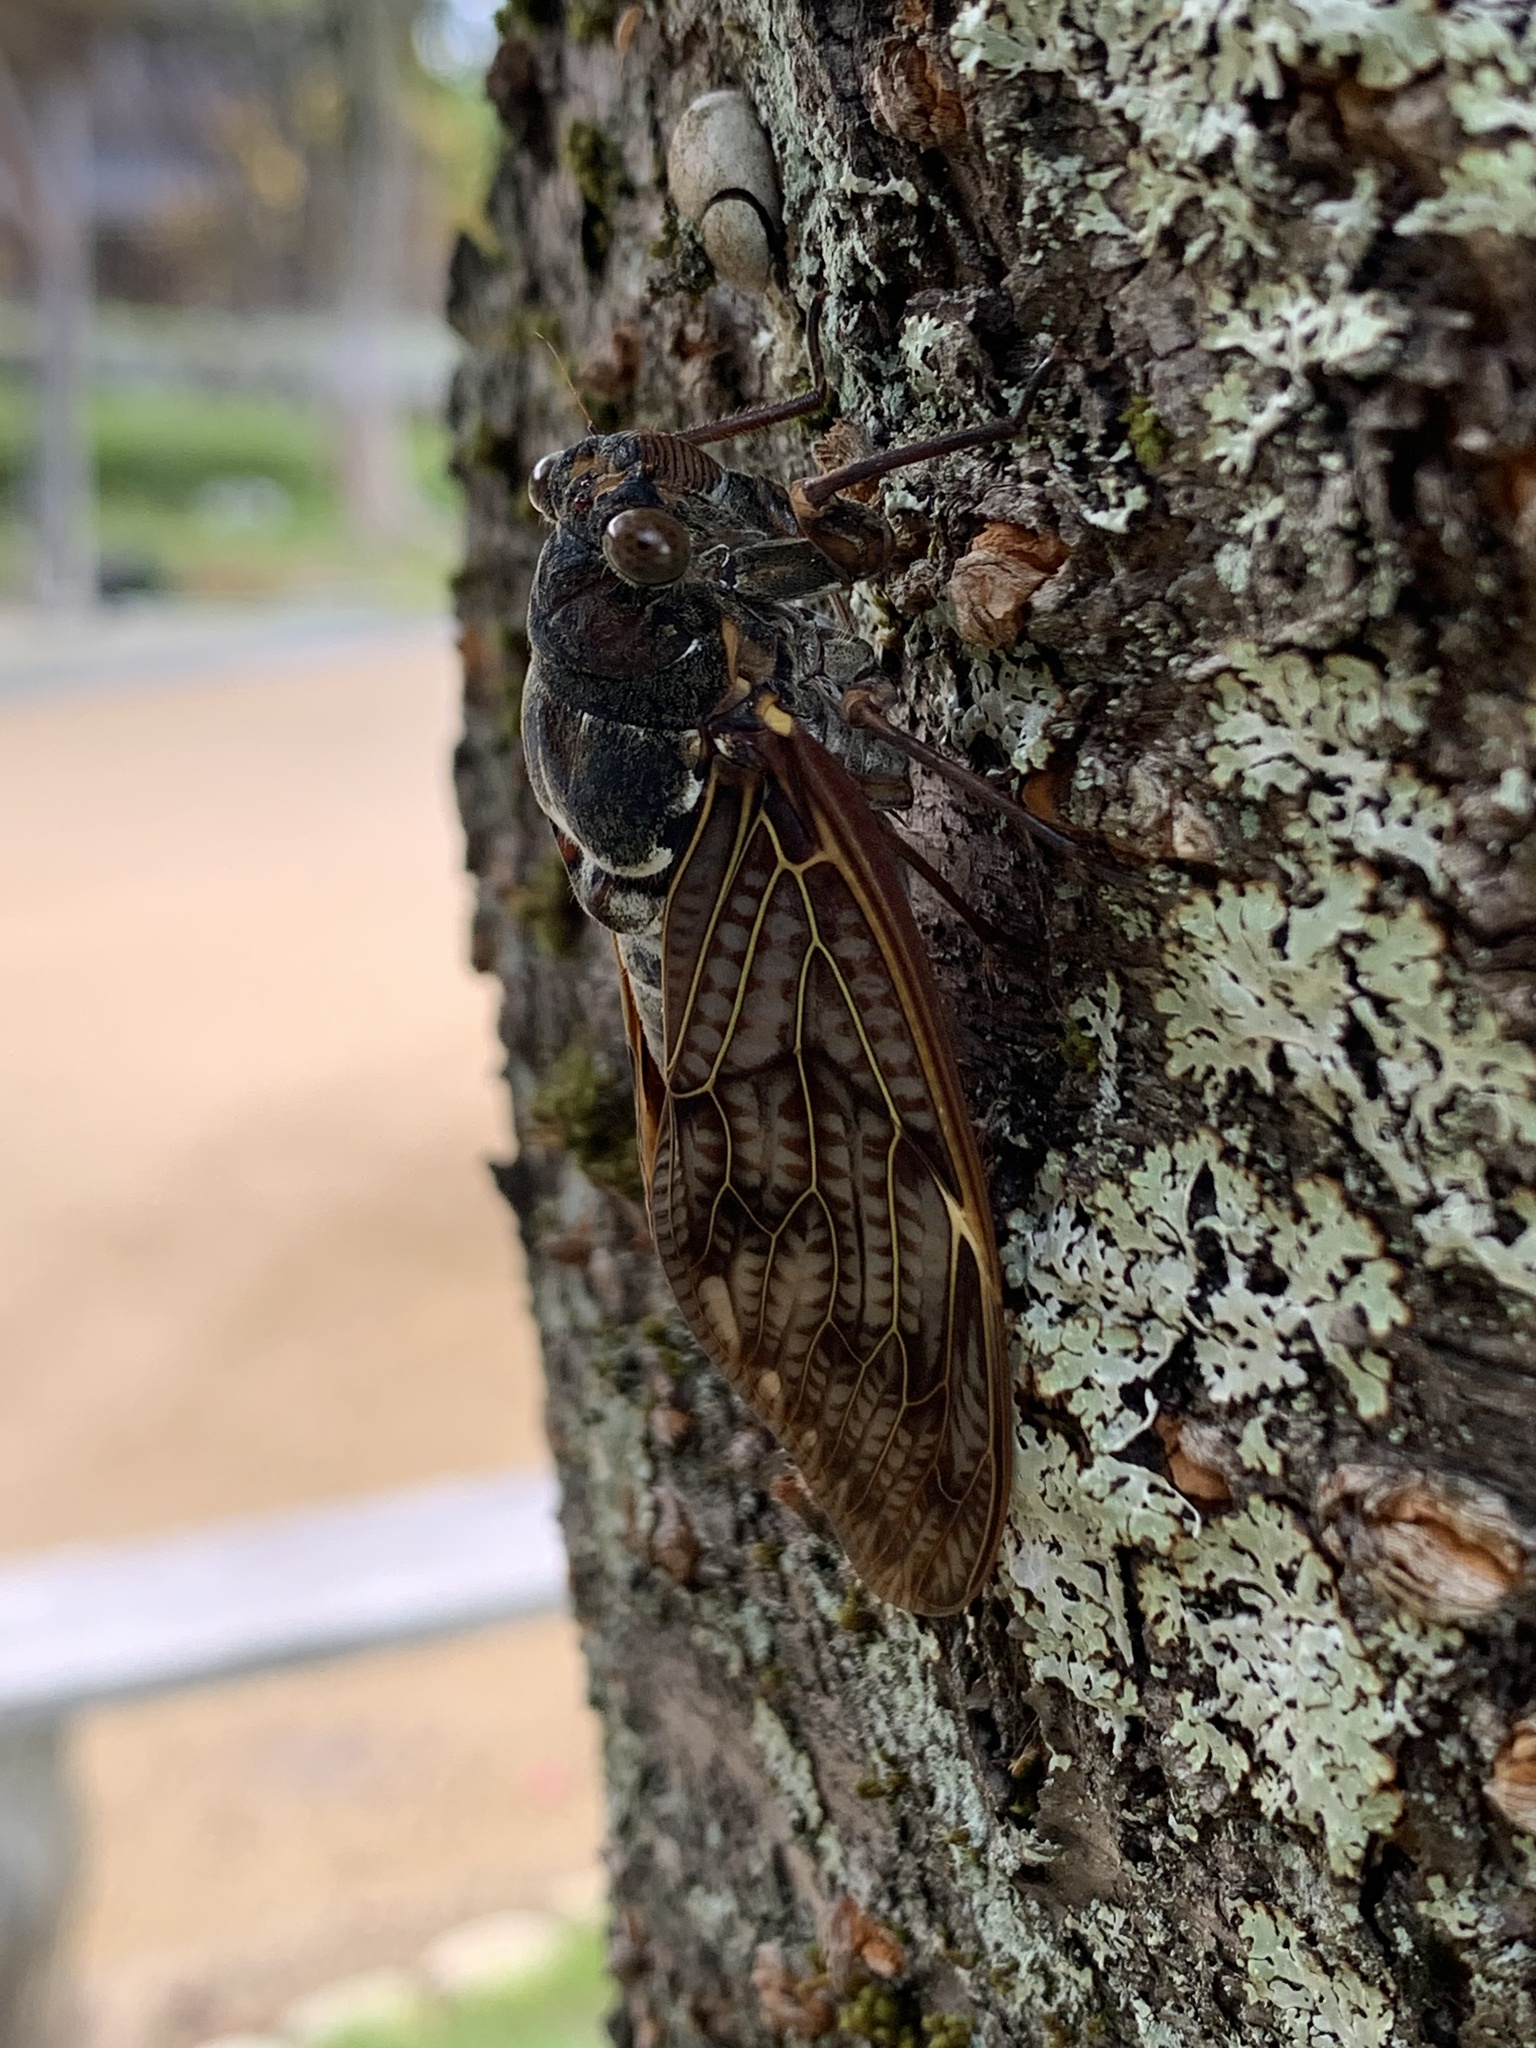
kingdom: Animalia
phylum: Arthropoda
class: Insecta
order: Hemiptera
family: Cicadidae
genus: Graptopsaltria
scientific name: Graptopsaltria nigrofuscata
